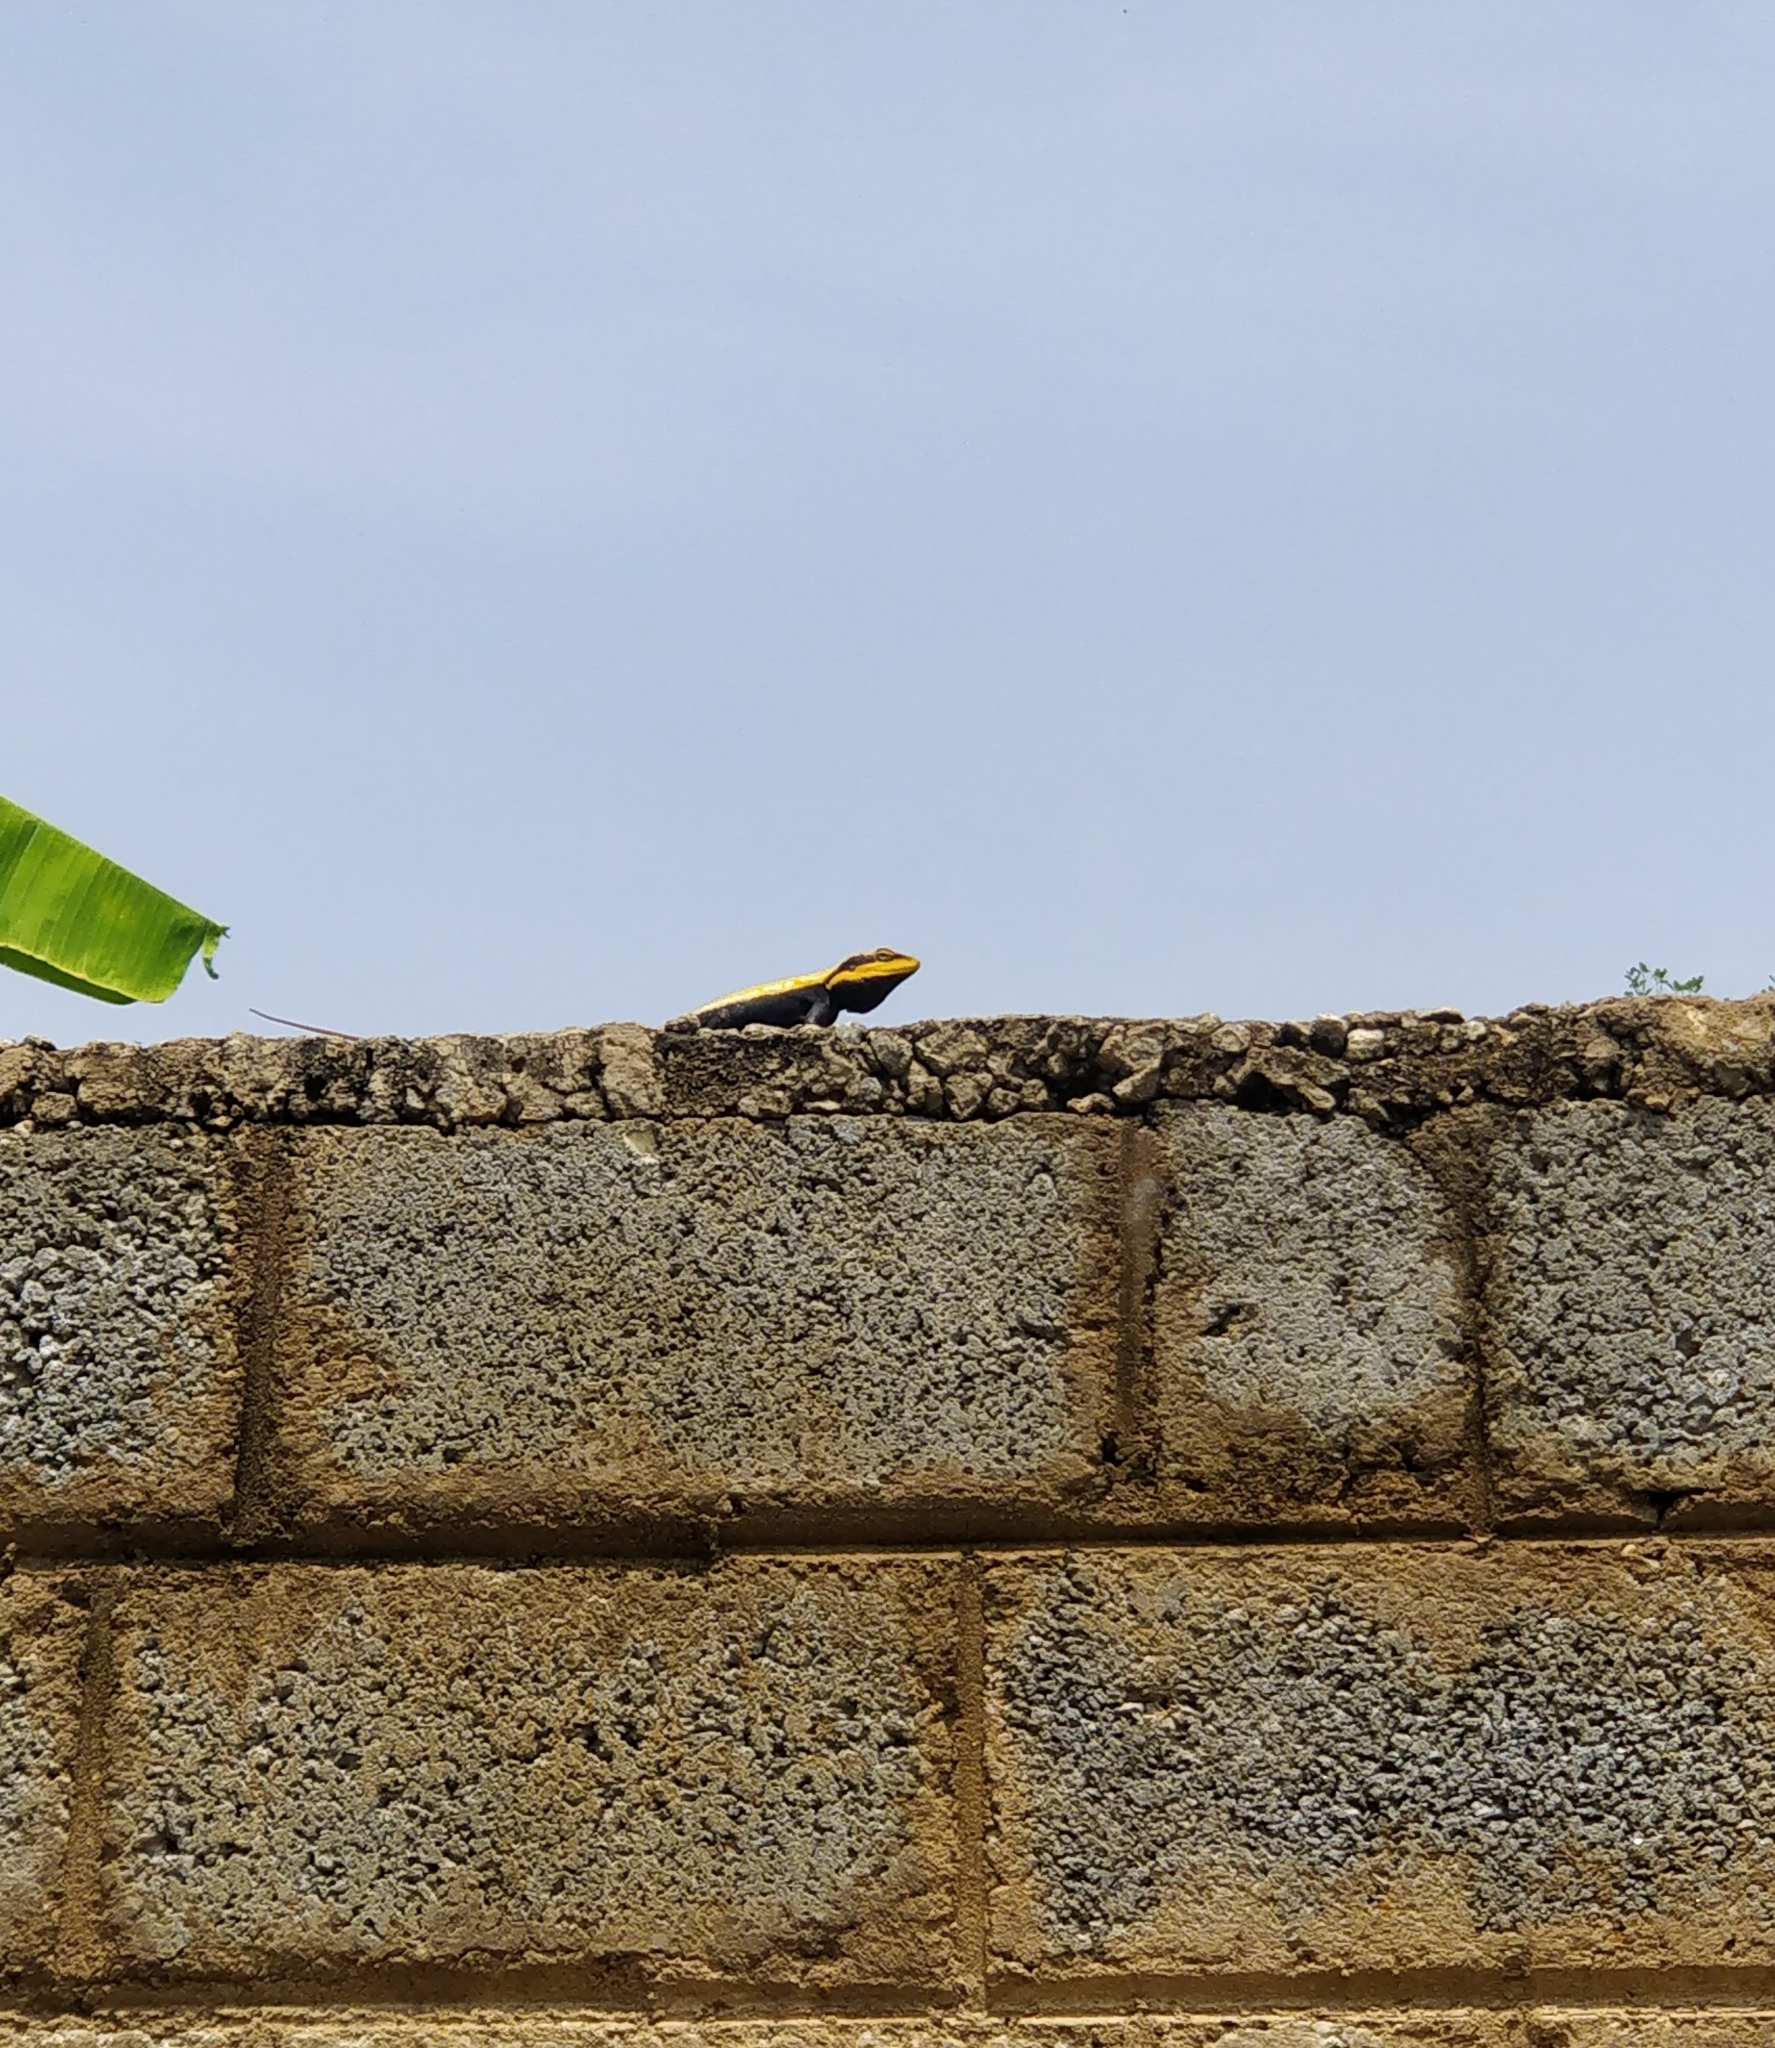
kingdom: Animalia
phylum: Chordata
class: Squamata
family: Agamidae
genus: Psammophilus
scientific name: Psammophilus dorsalis
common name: South indian rock agama
